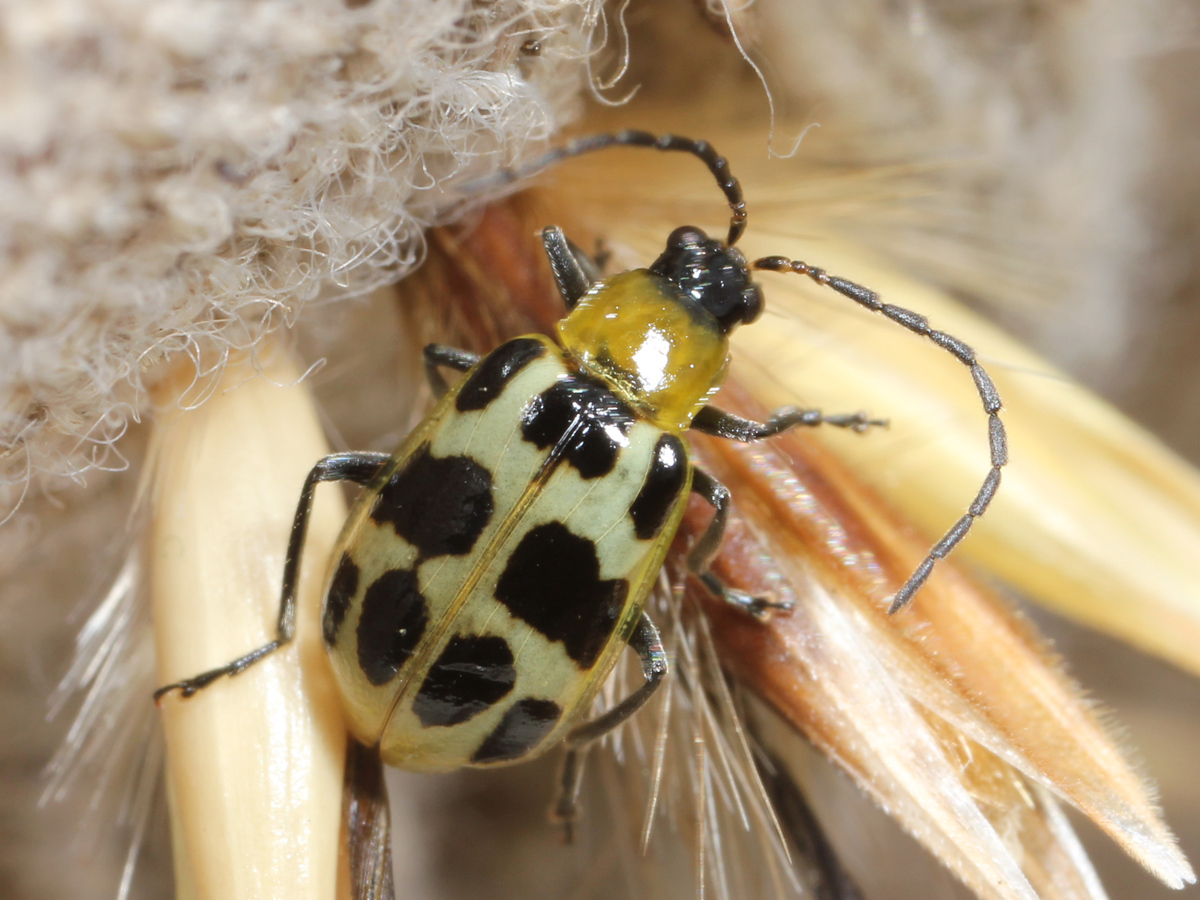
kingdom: Animalia
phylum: Arthropoda
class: Insecta
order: Coleoptera
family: Chrysomelidae
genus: Diabrotica
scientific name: Diabrotica undecimpunctata
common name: Spotted cucumber beetle
